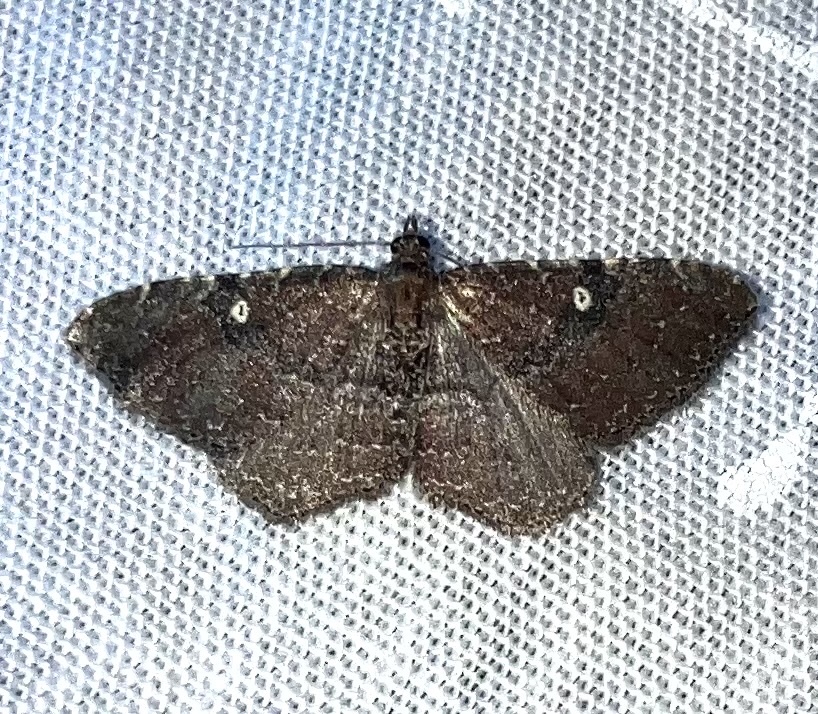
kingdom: Animalia
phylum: Arthropoda
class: Insecta
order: Lepidoptera
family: Geometridae
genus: Orthonama
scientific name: Orthonama obstipata
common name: The gem
